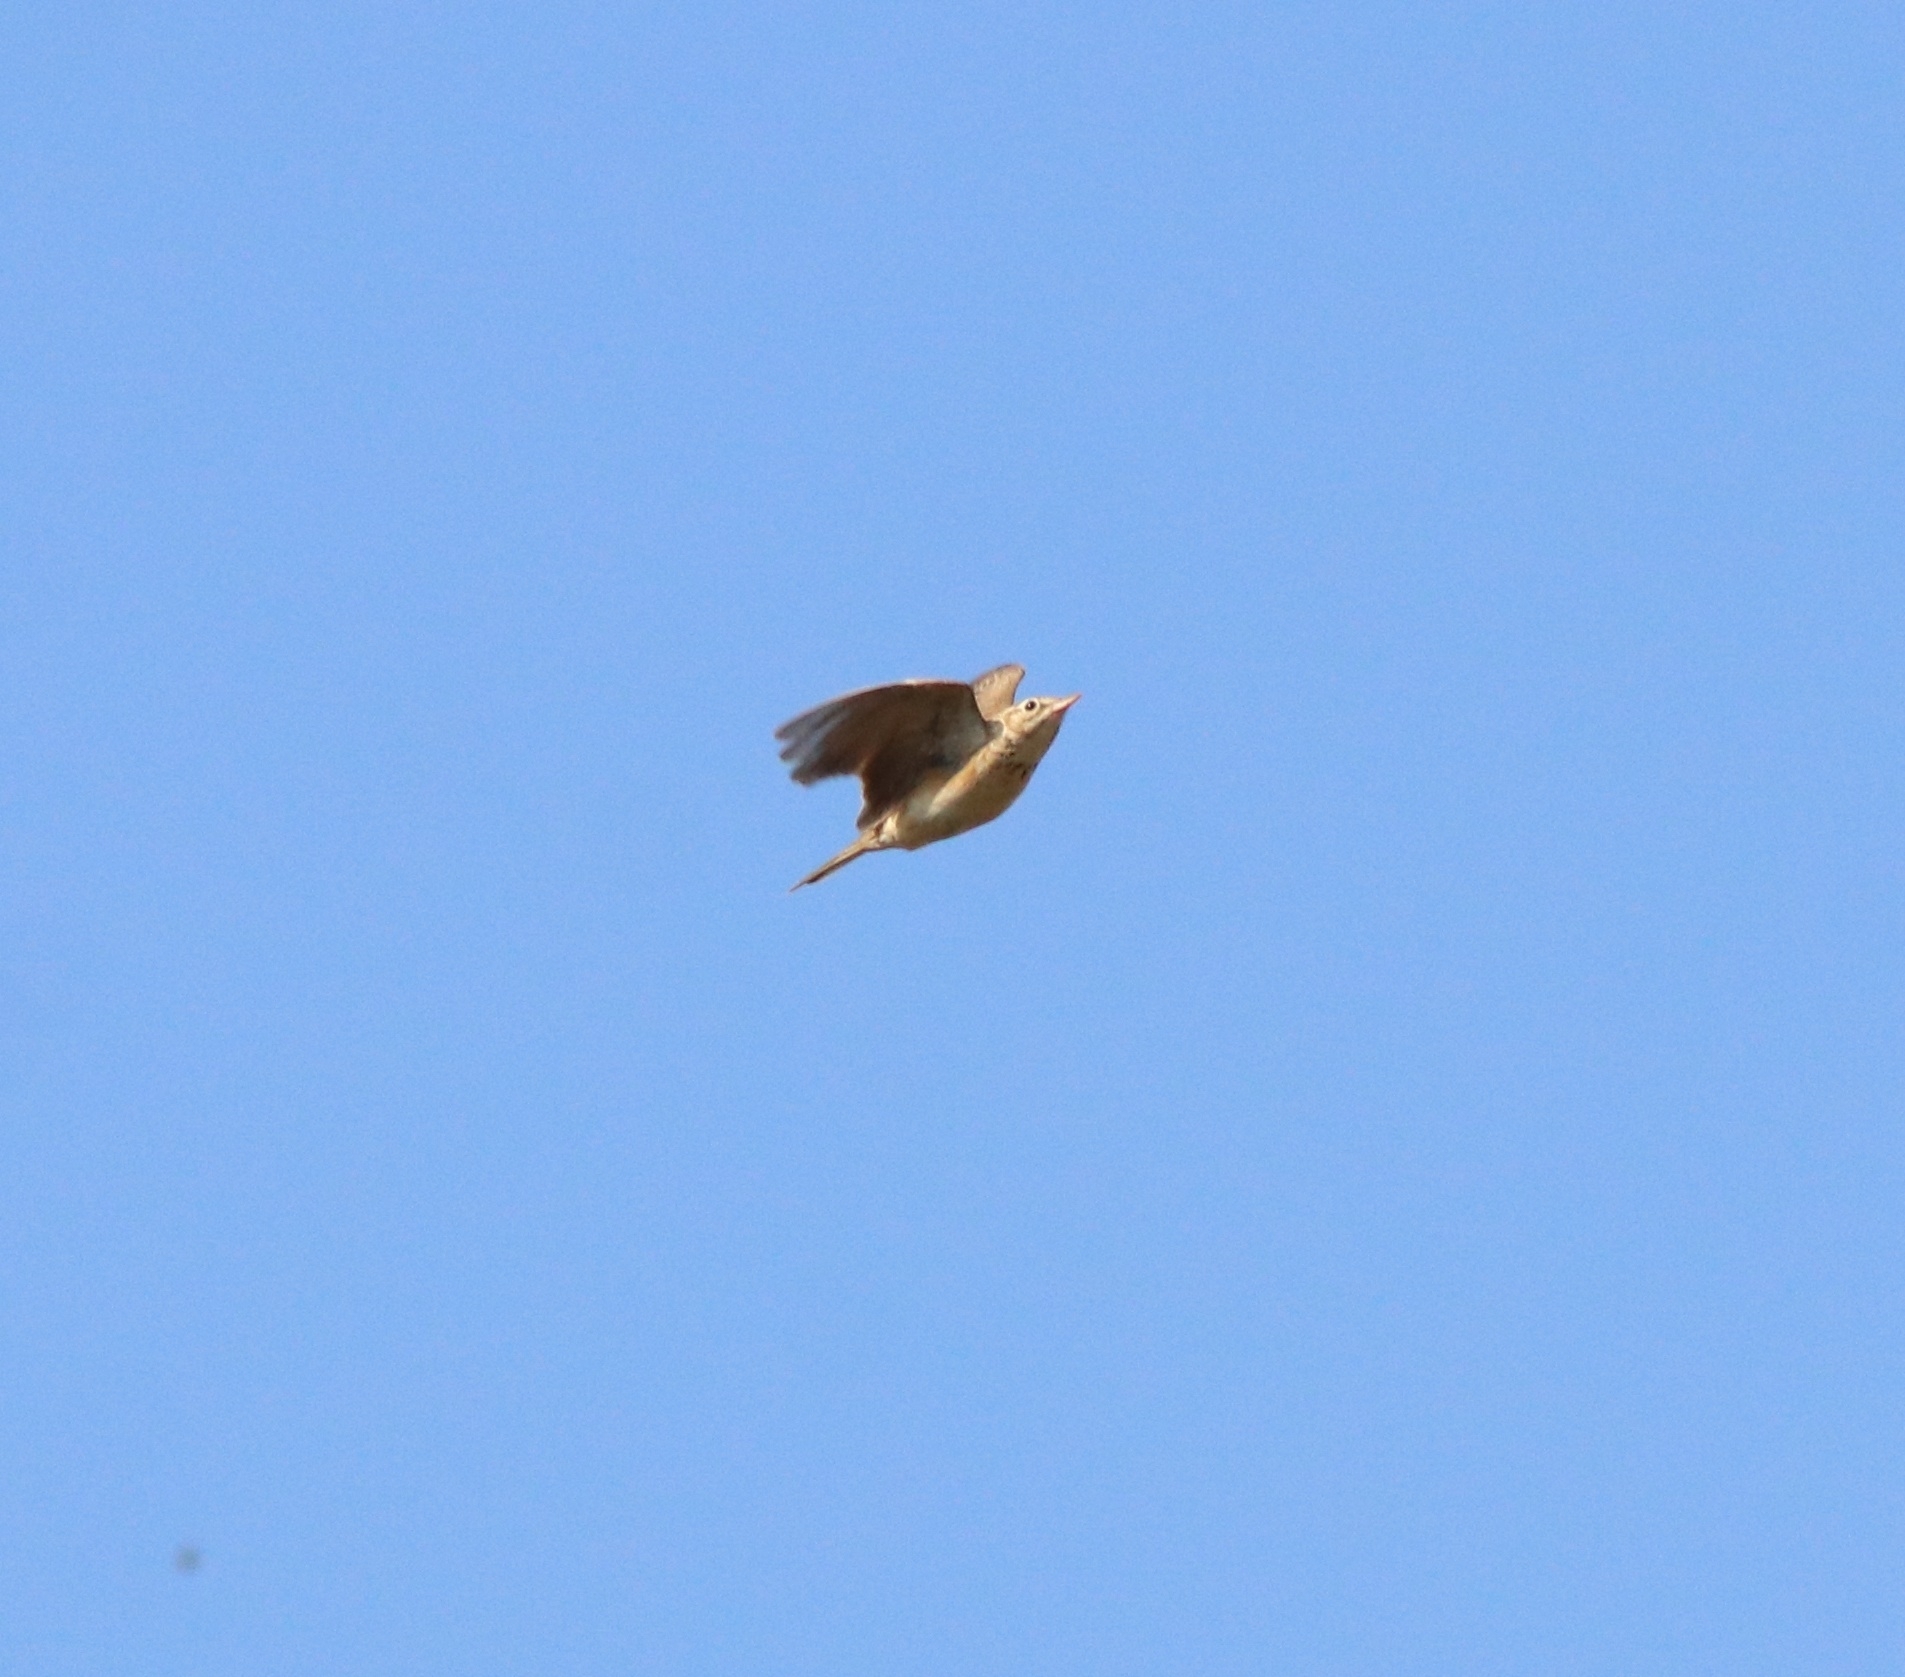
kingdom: Animalia
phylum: Chordata
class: Aves
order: Passeriformes
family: Motacillidae
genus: Anthus
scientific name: Anthus rufulus
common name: Paddyfield pipit
